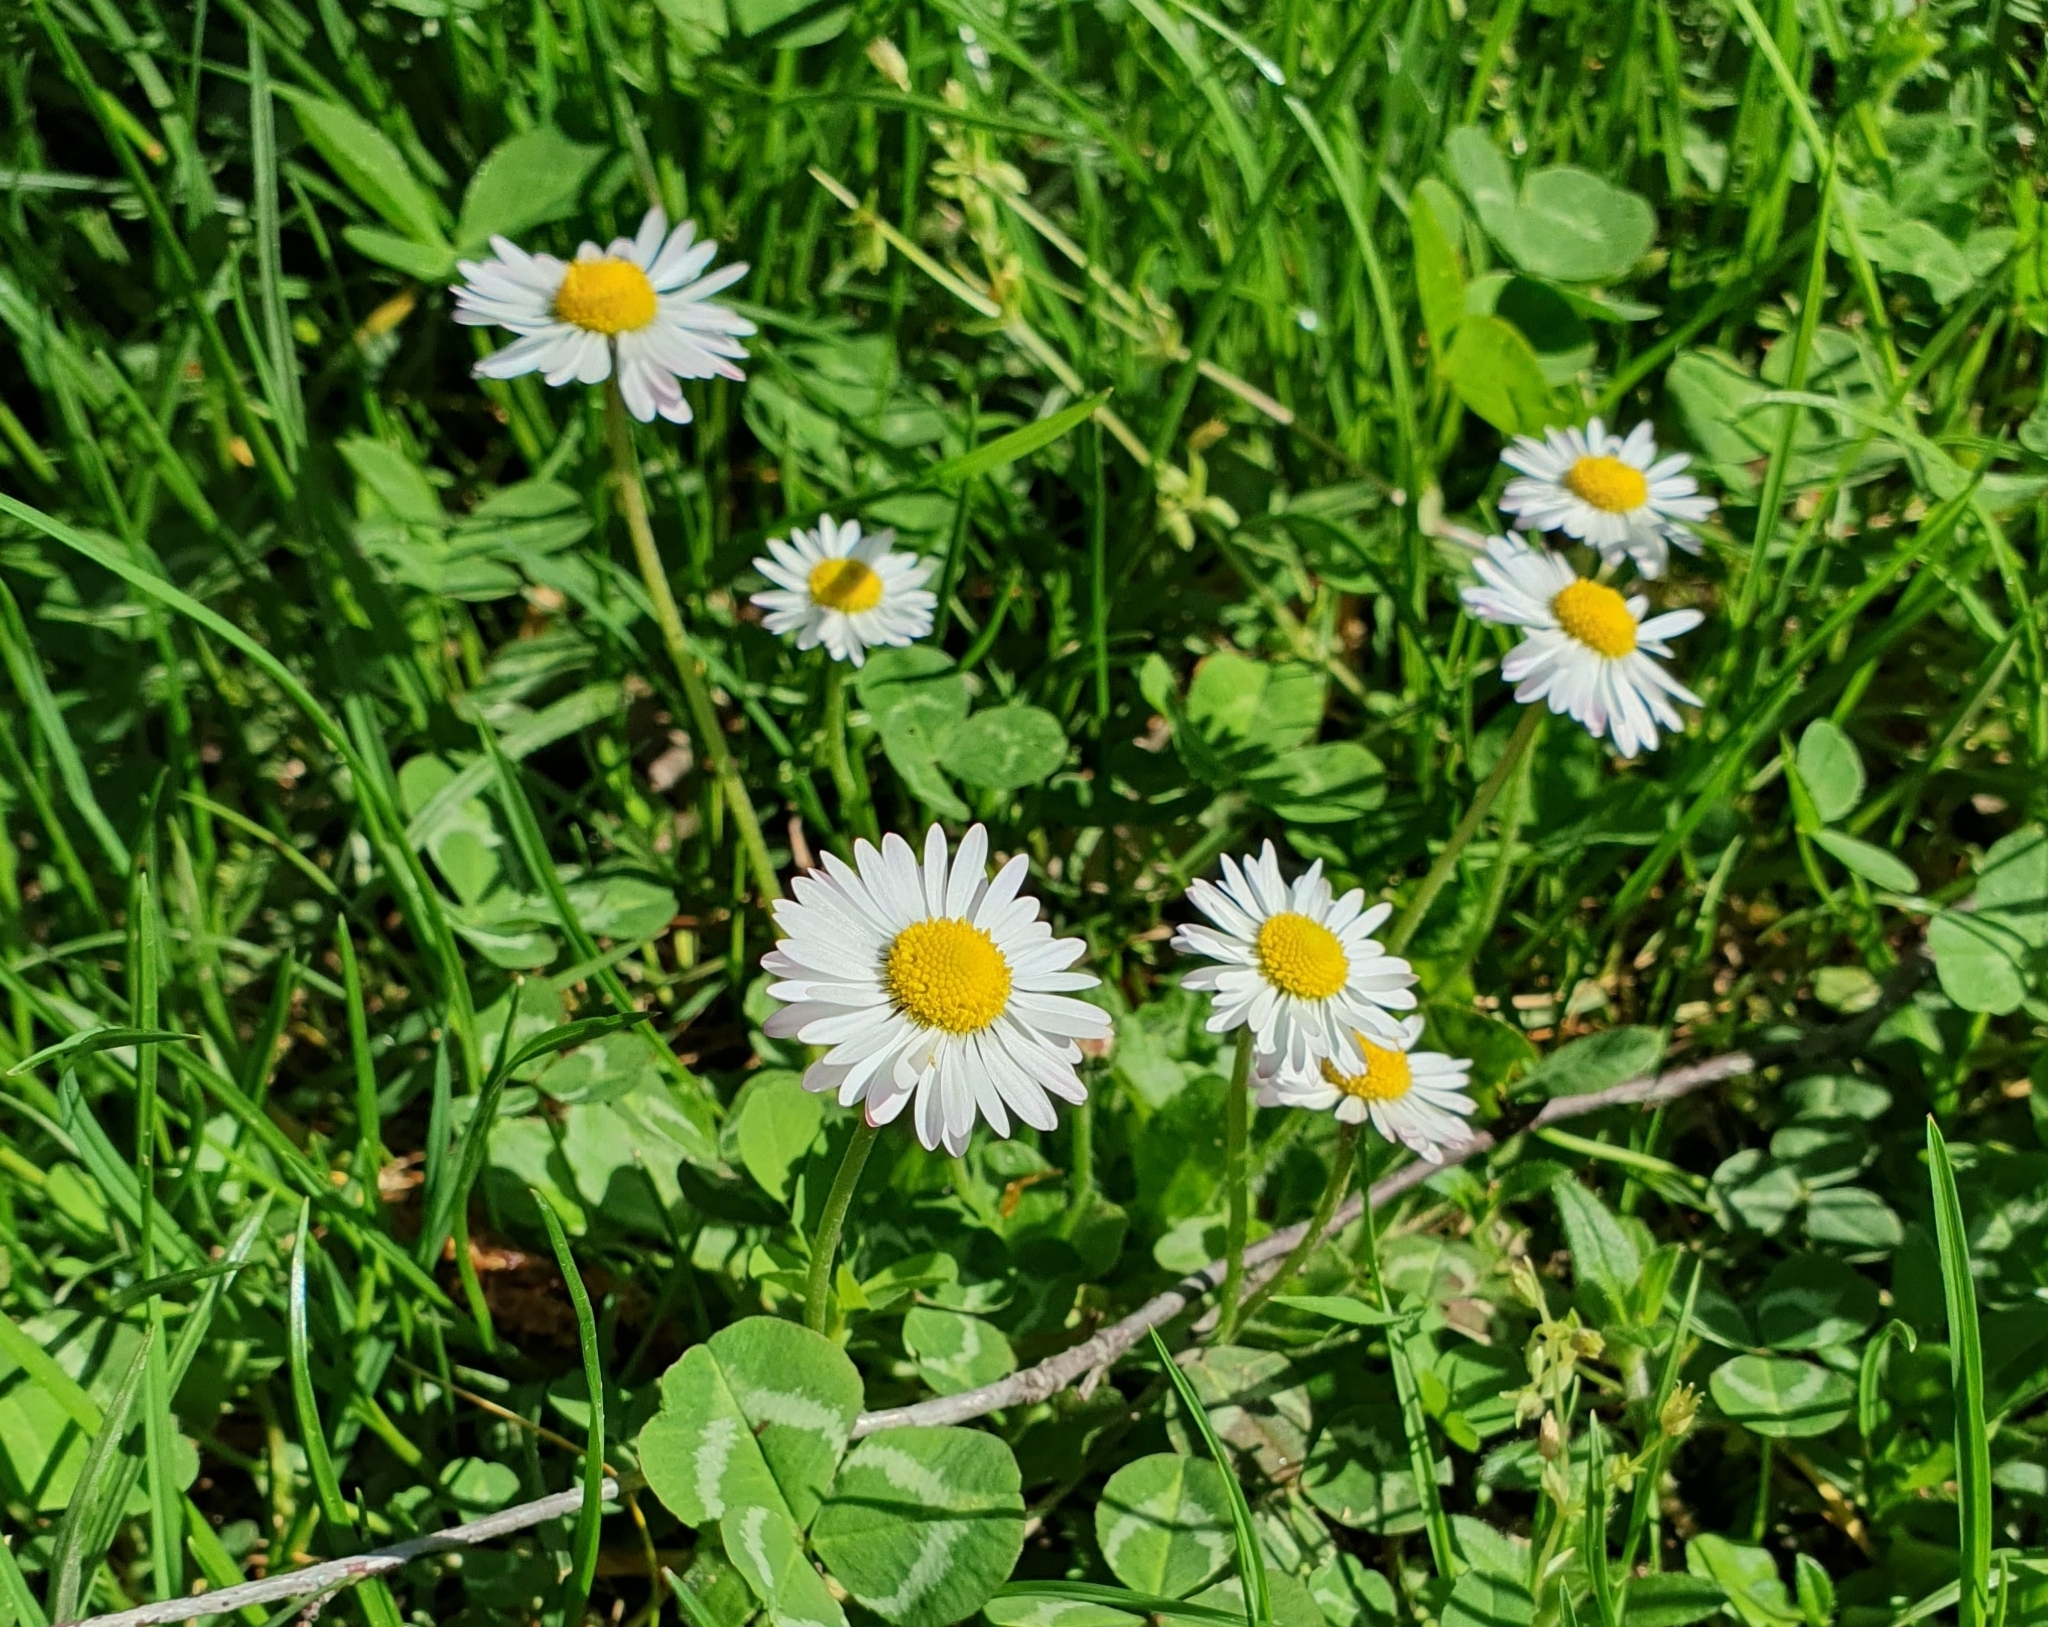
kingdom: Plantae
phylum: Tracheophyta
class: Magnoliopsida
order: Asterales
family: Asteraceae
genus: Bellis
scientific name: Bellis perennis
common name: Lawndaisy
